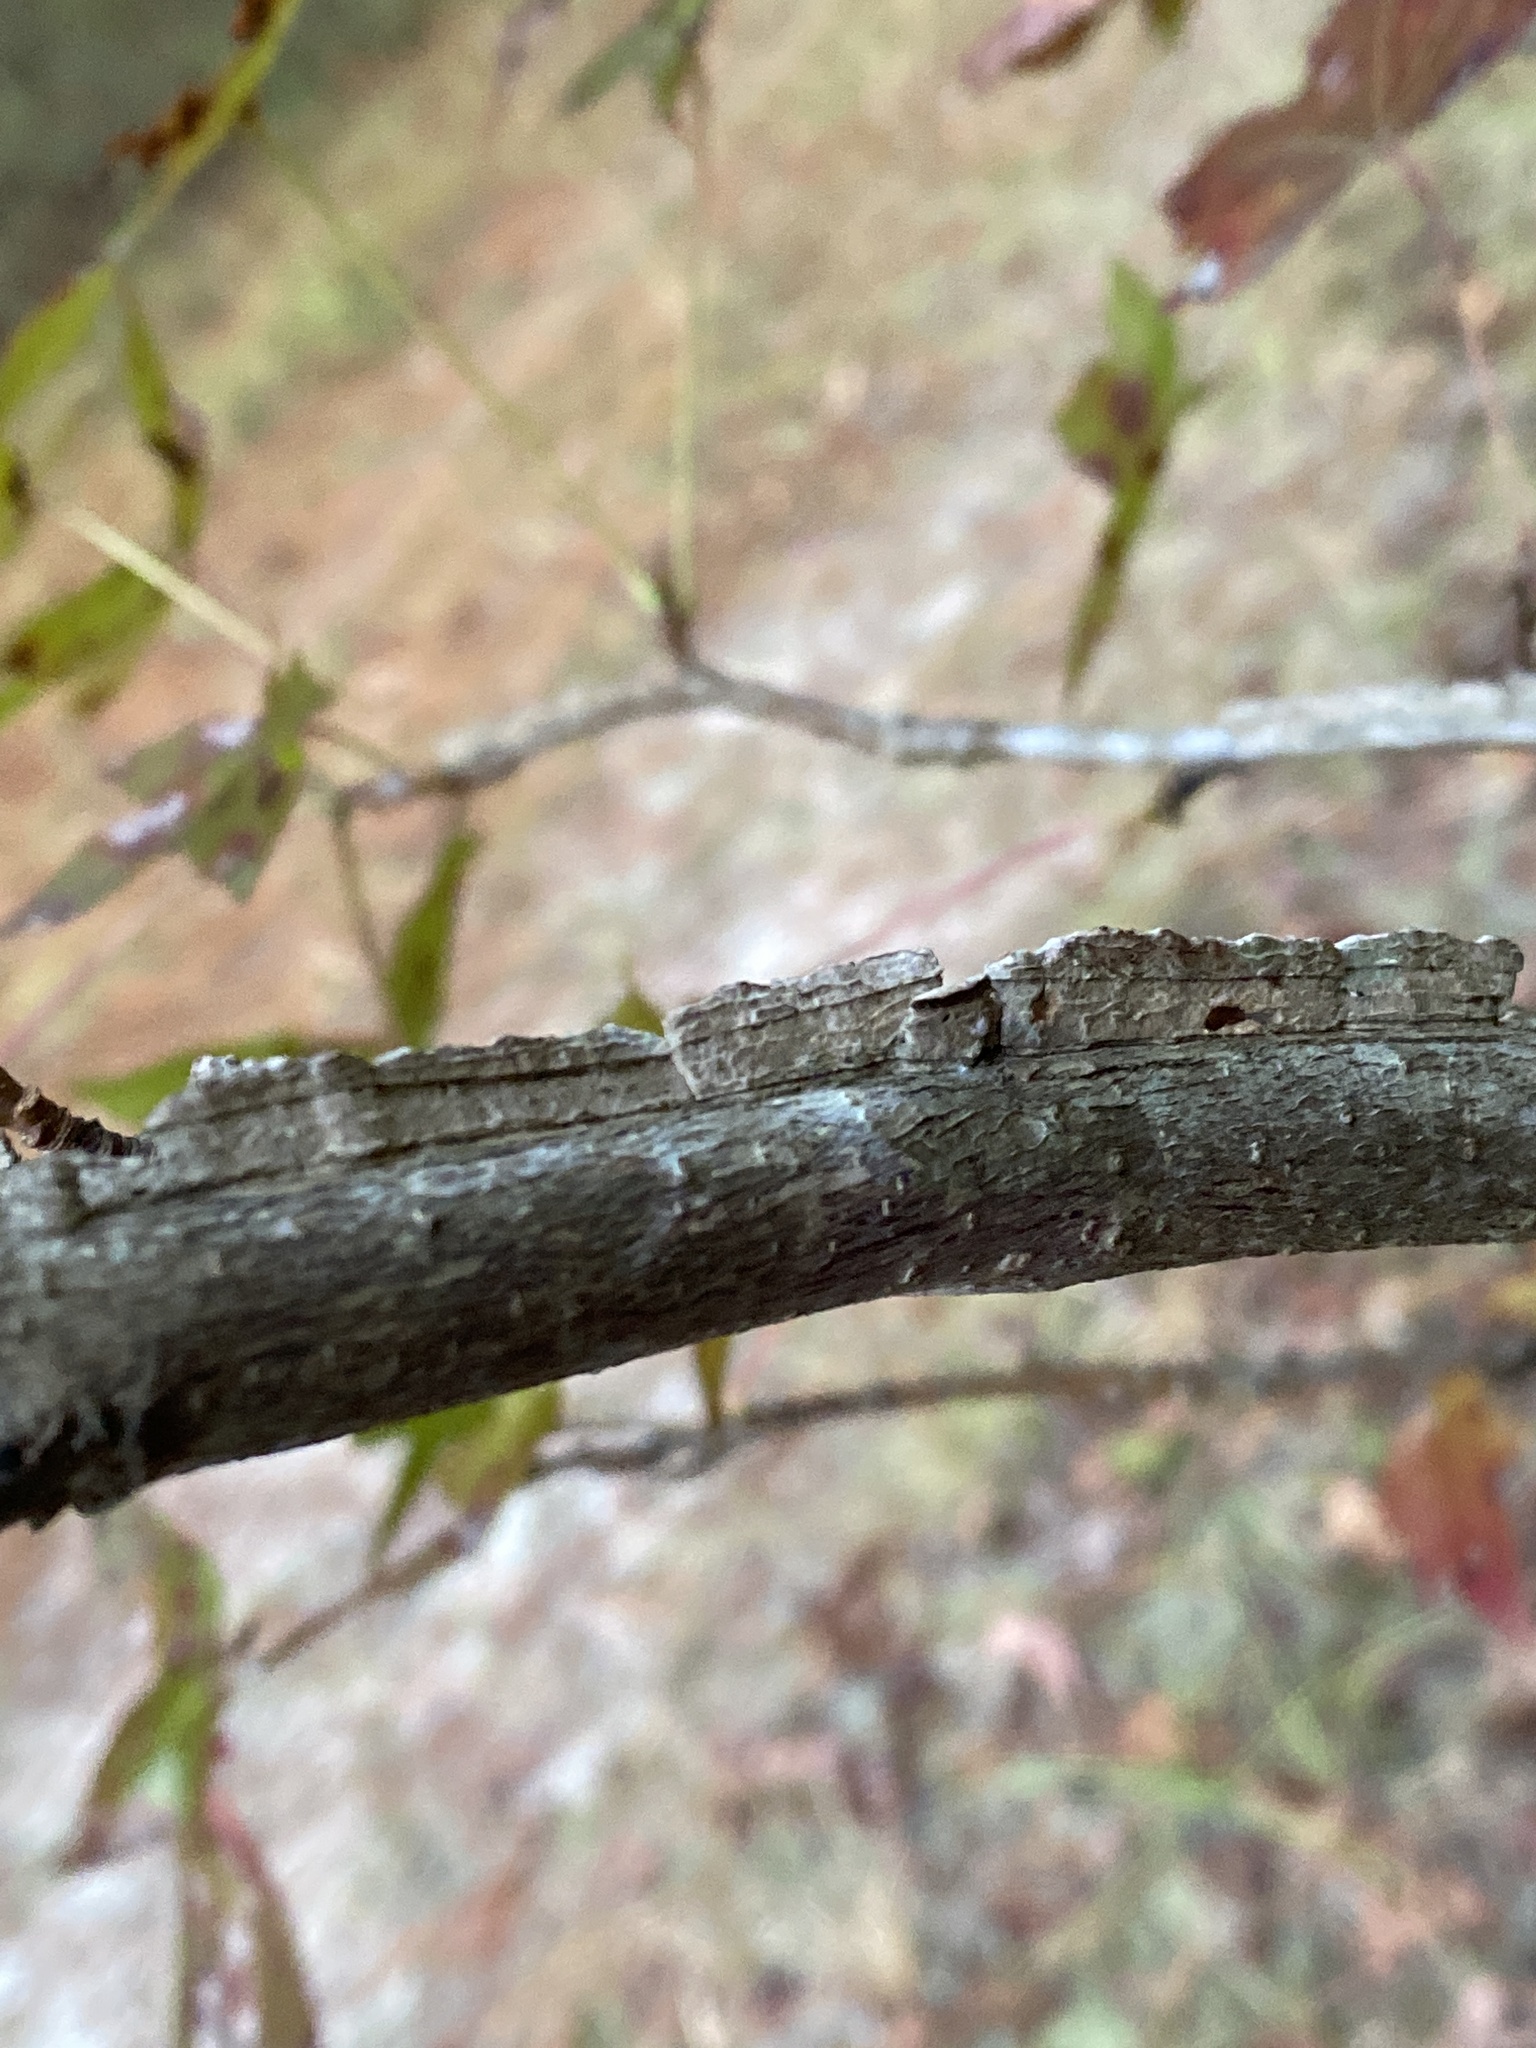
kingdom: Plantae
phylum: Tracheophyta
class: Magnoliopsida
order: Saxifragales
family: Altingiaceae
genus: Liquidambar
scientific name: Liquidambar styraciflua
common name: Sweet gum
